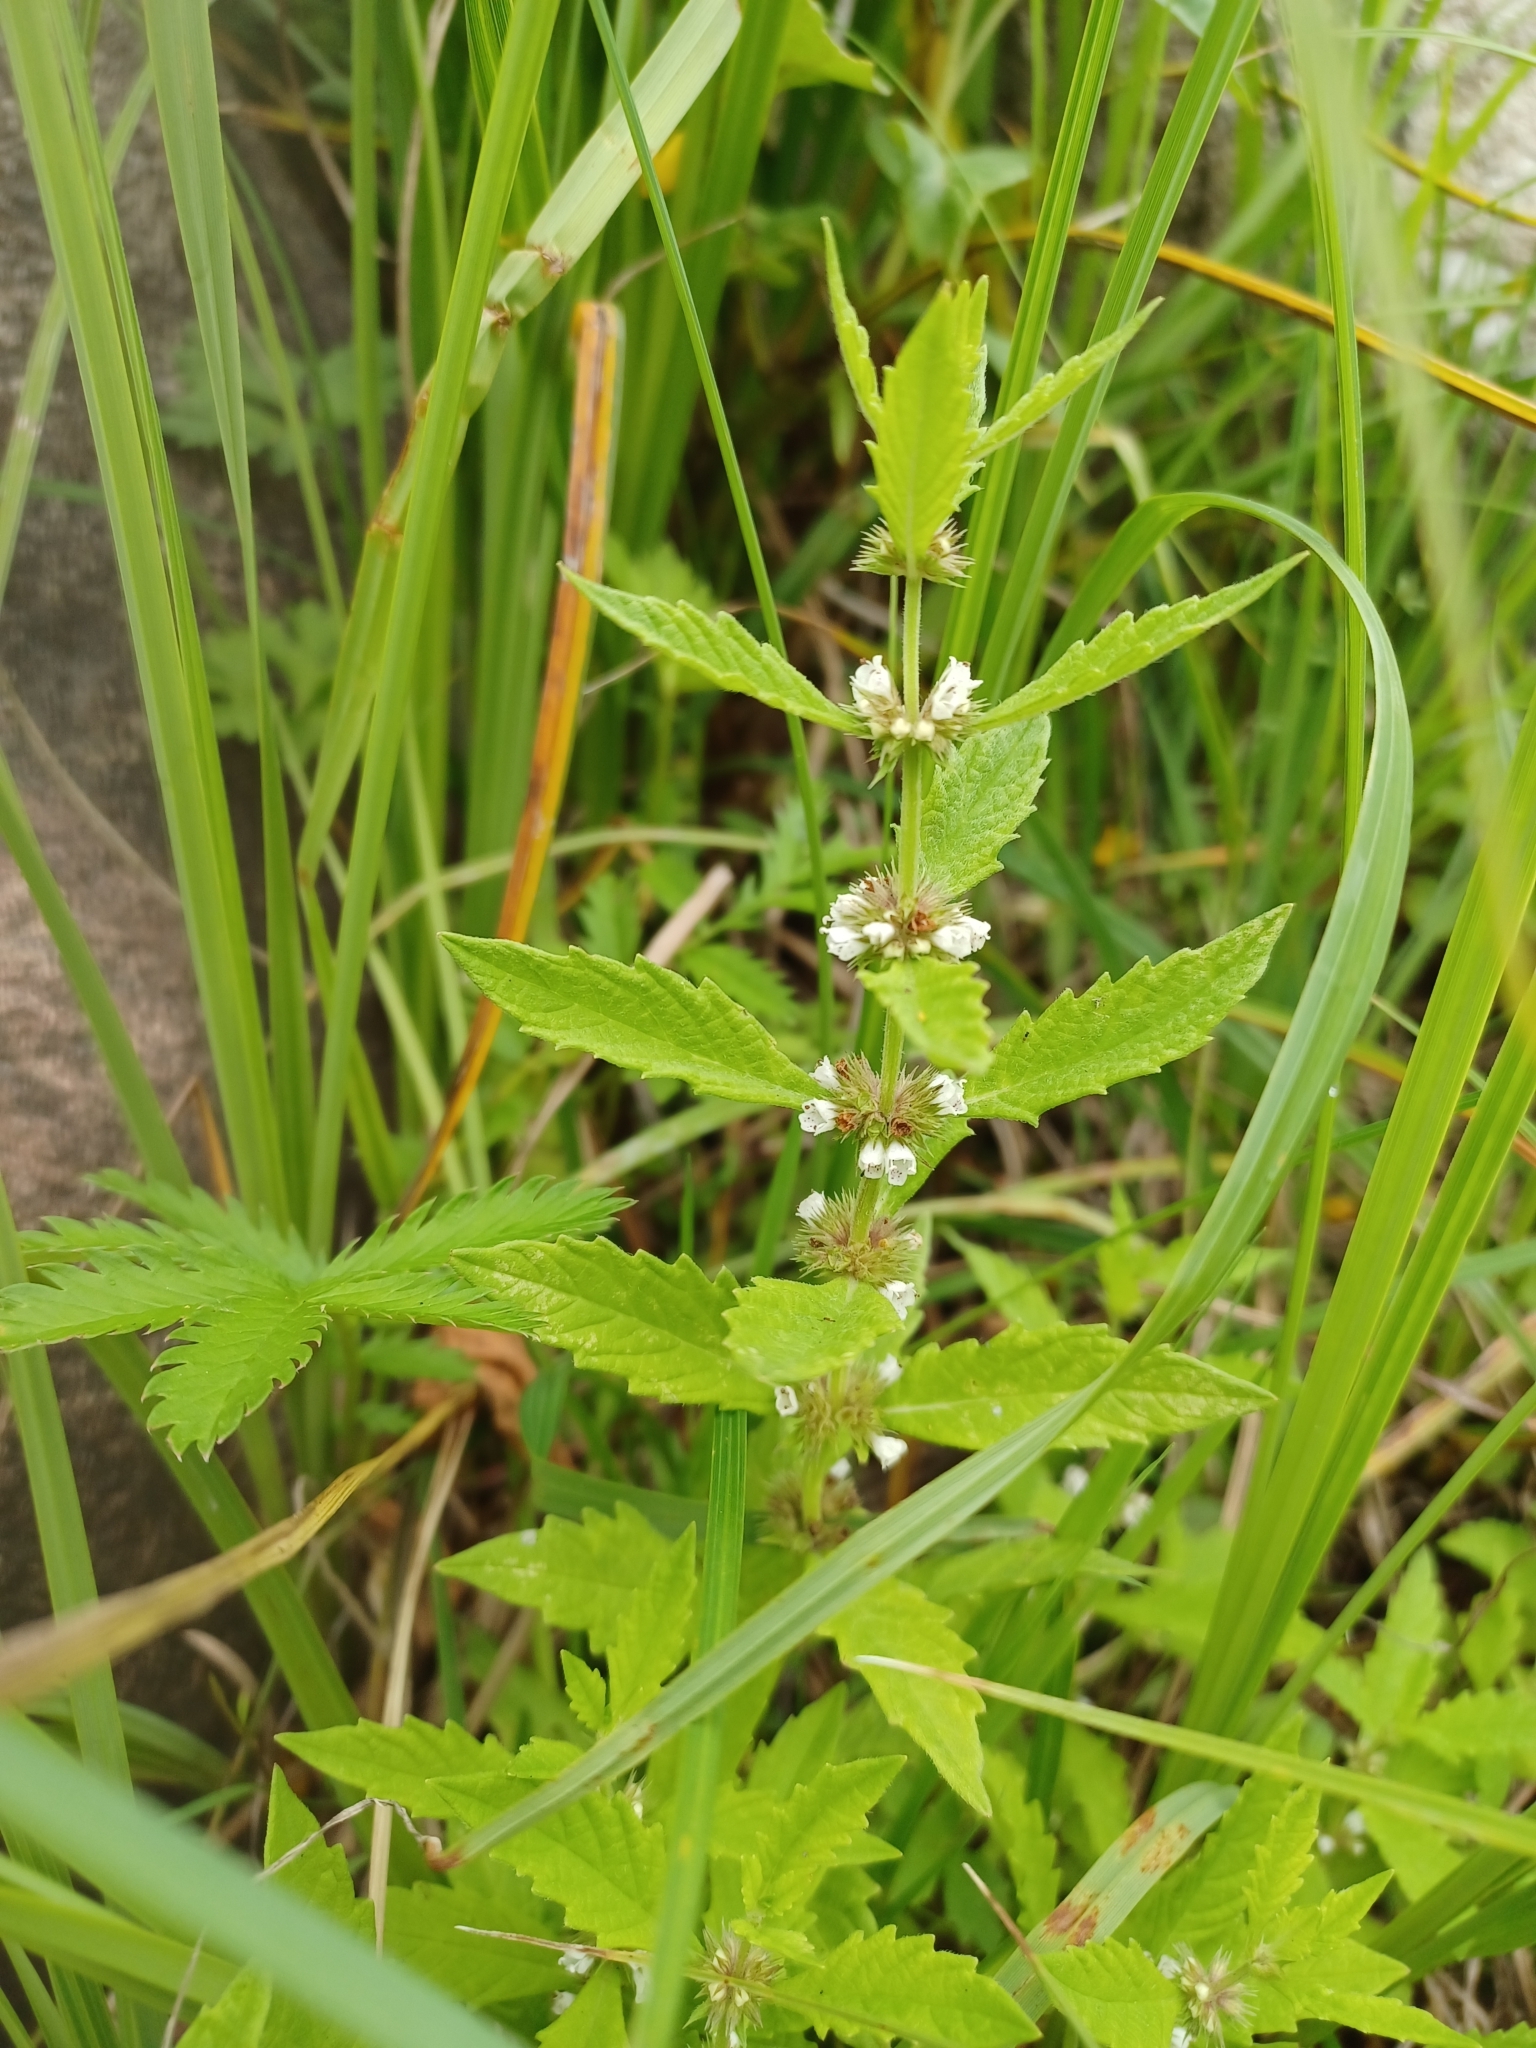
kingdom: Plantae
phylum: Tracheophyta
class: Magnoliopsida
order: Lamiales
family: Lamiaceae
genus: Lycopus
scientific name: Lycopus europaeus
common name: European bugleweed
